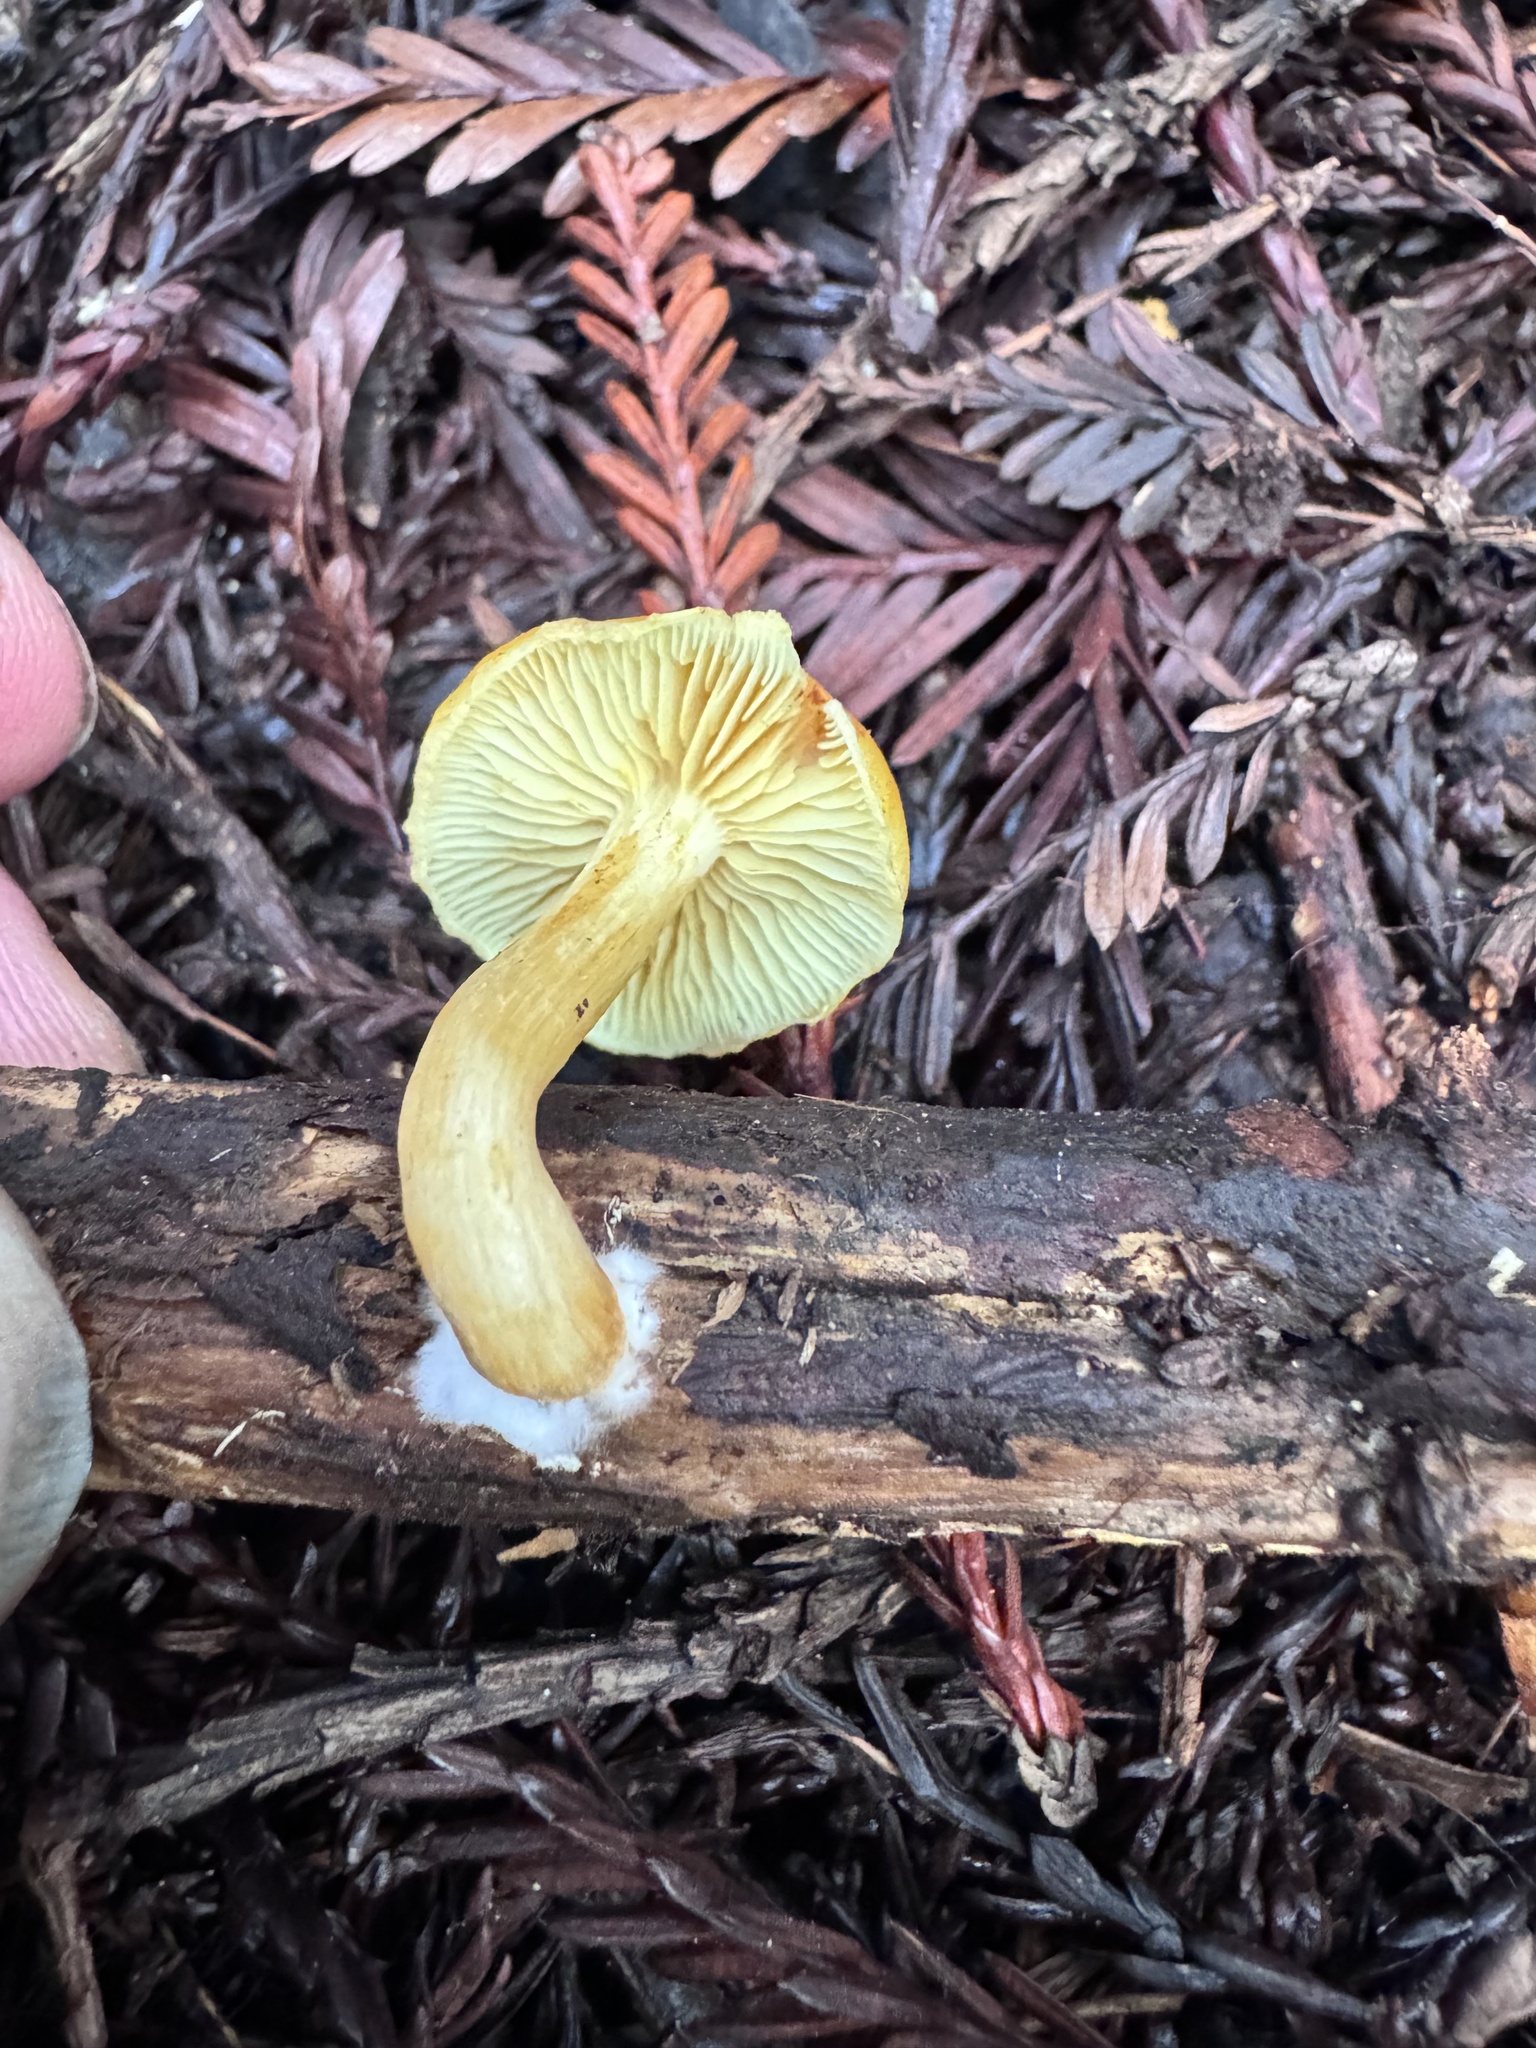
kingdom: Fungi
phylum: Basidiomycota
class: Agaricomycetes
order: Agaricales
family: Hymenogastraceae
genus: Gymnopilus
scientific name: Gymnopilus aurantiophyllus
